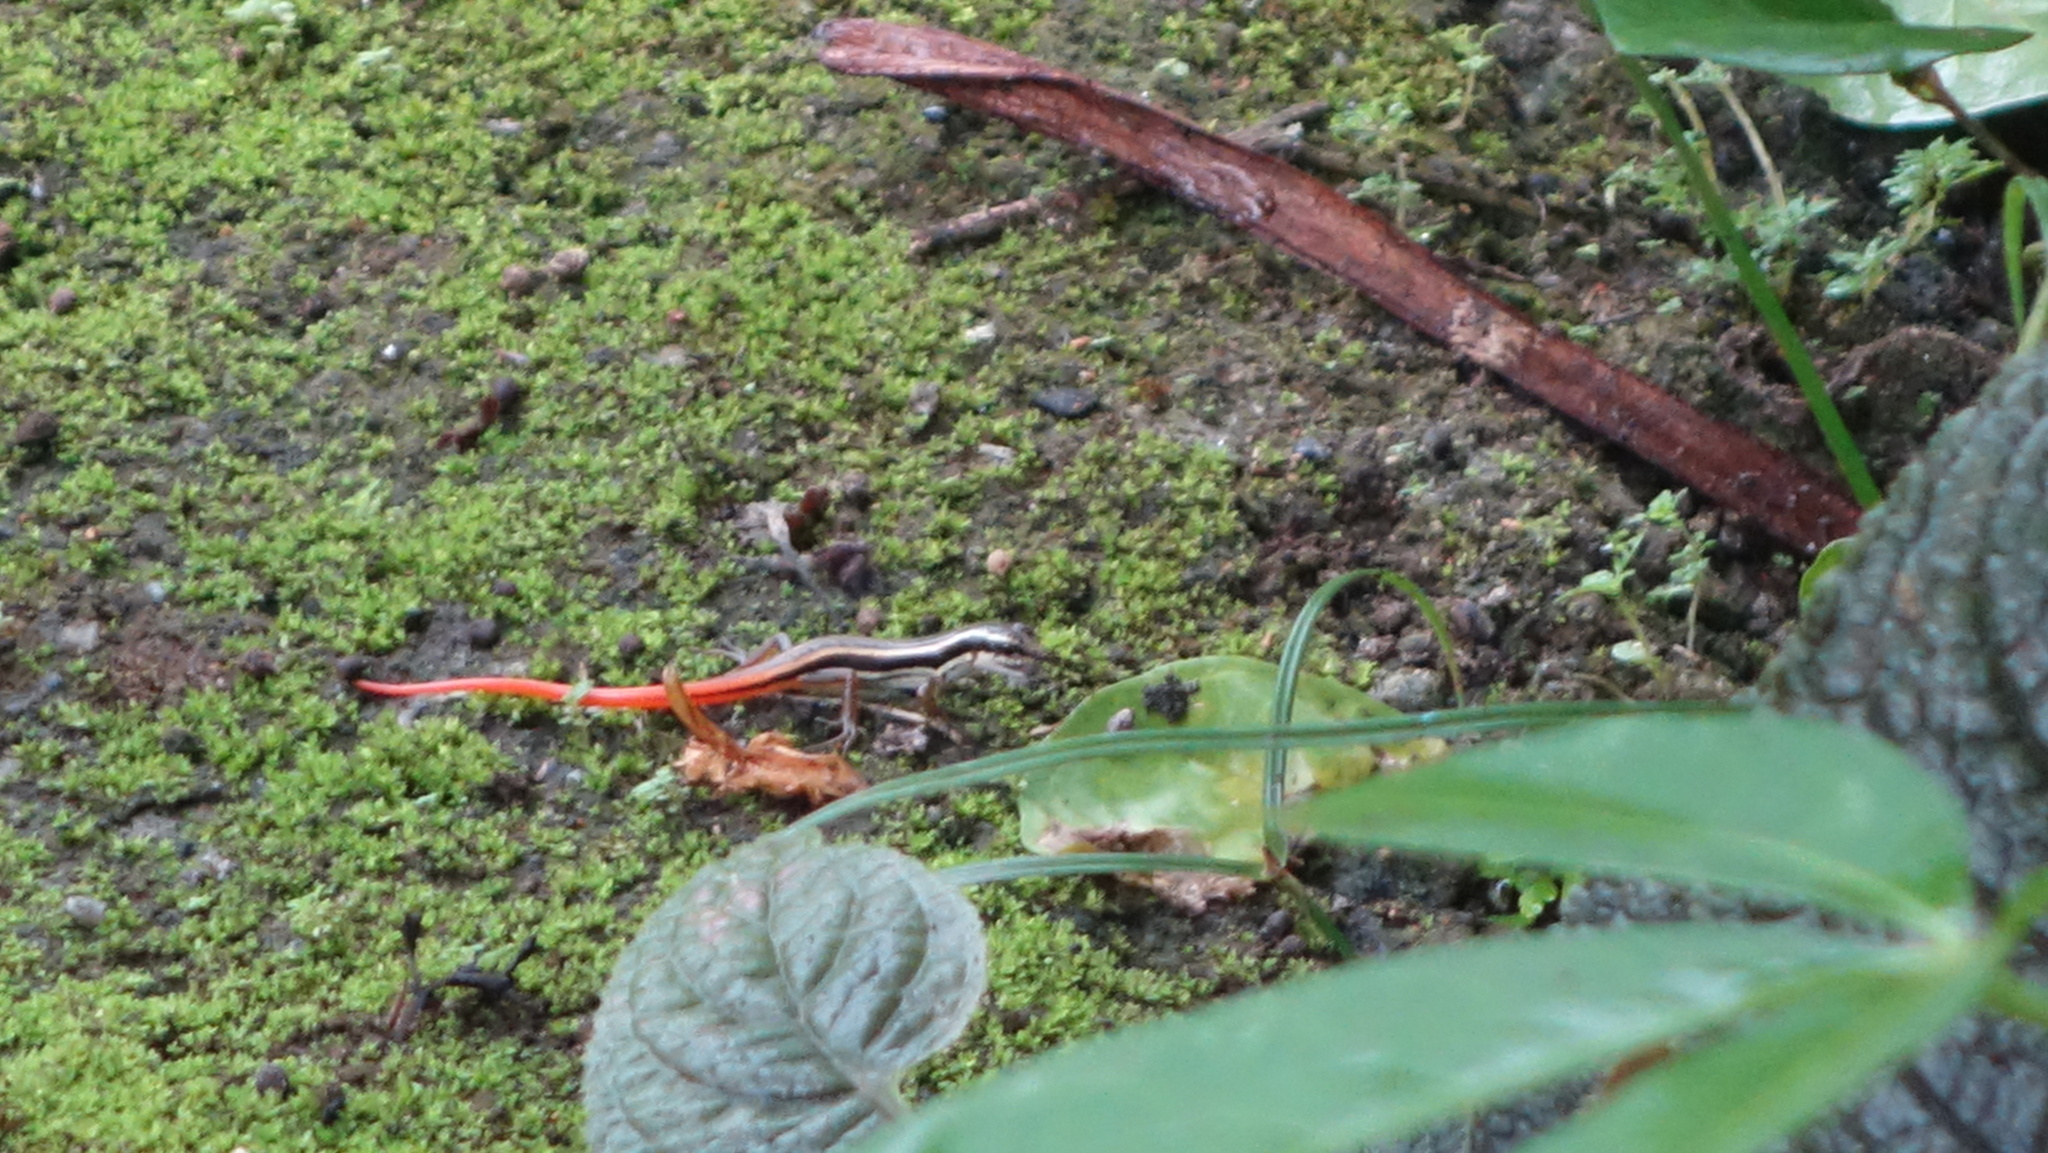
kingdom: Animalia
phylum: Chordata
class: Squamata
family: Scincidae
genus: Sphenomorphus
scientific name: Sphenomorphus dussumieri
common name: Dussumier's forest skink
